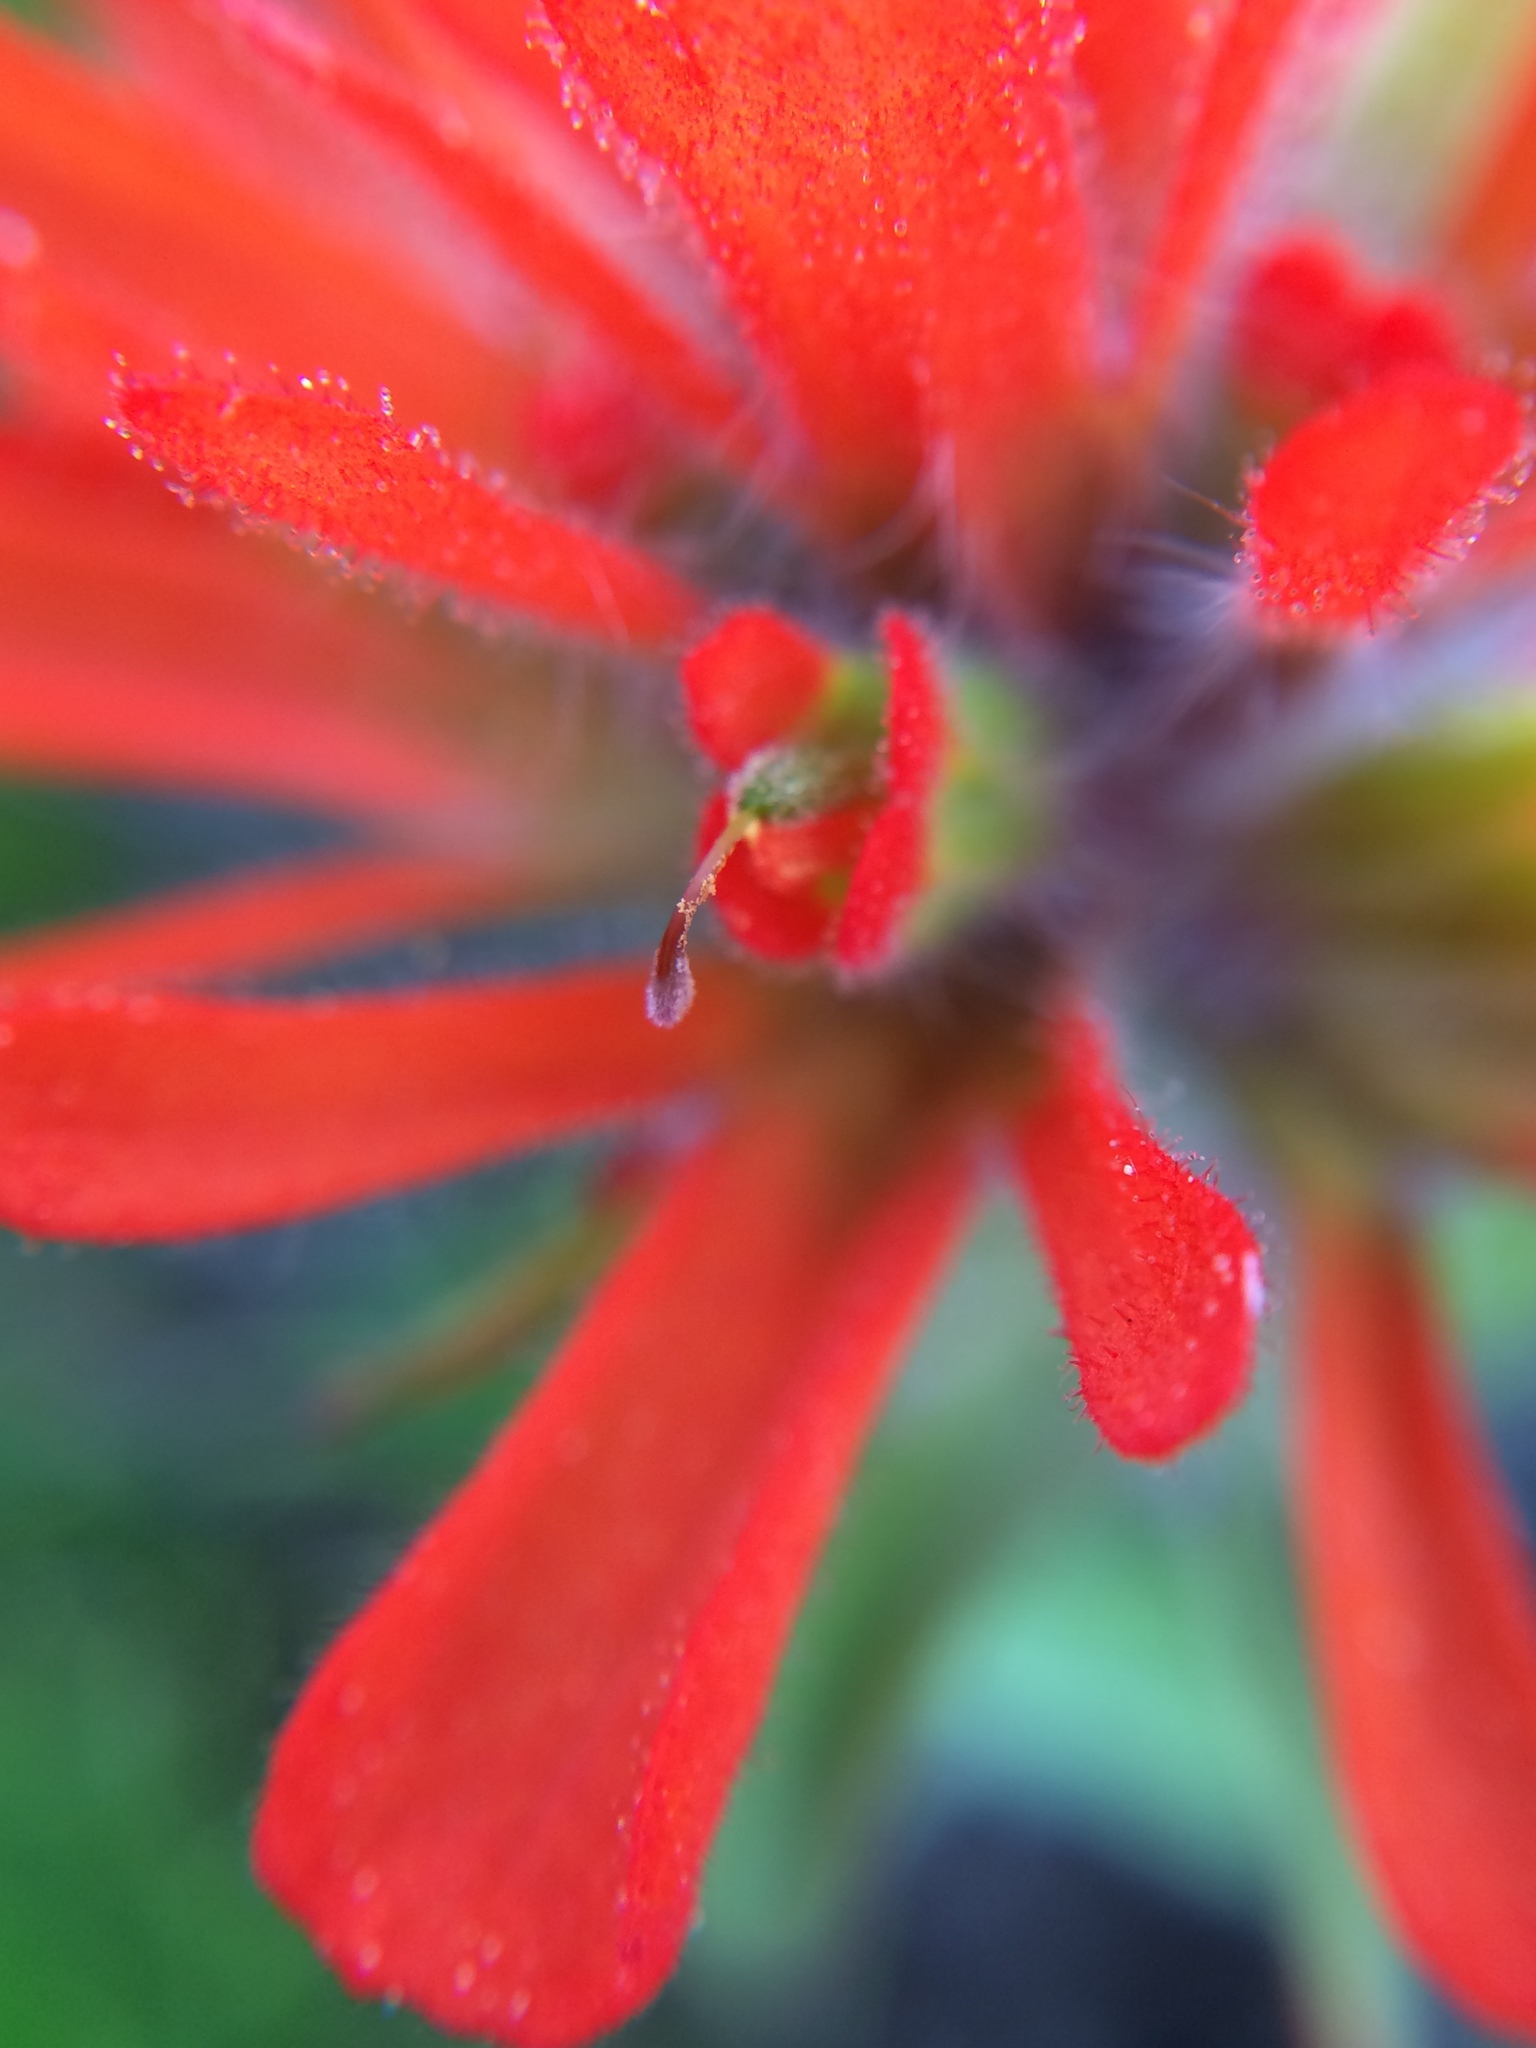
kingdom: Plantae
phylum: Tracheophyta
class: Magnoliopsida
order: Lamiales
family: Orobanchaceae
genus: Castilleja
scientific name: Castilleja hispida
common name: Bristly paintbrush
